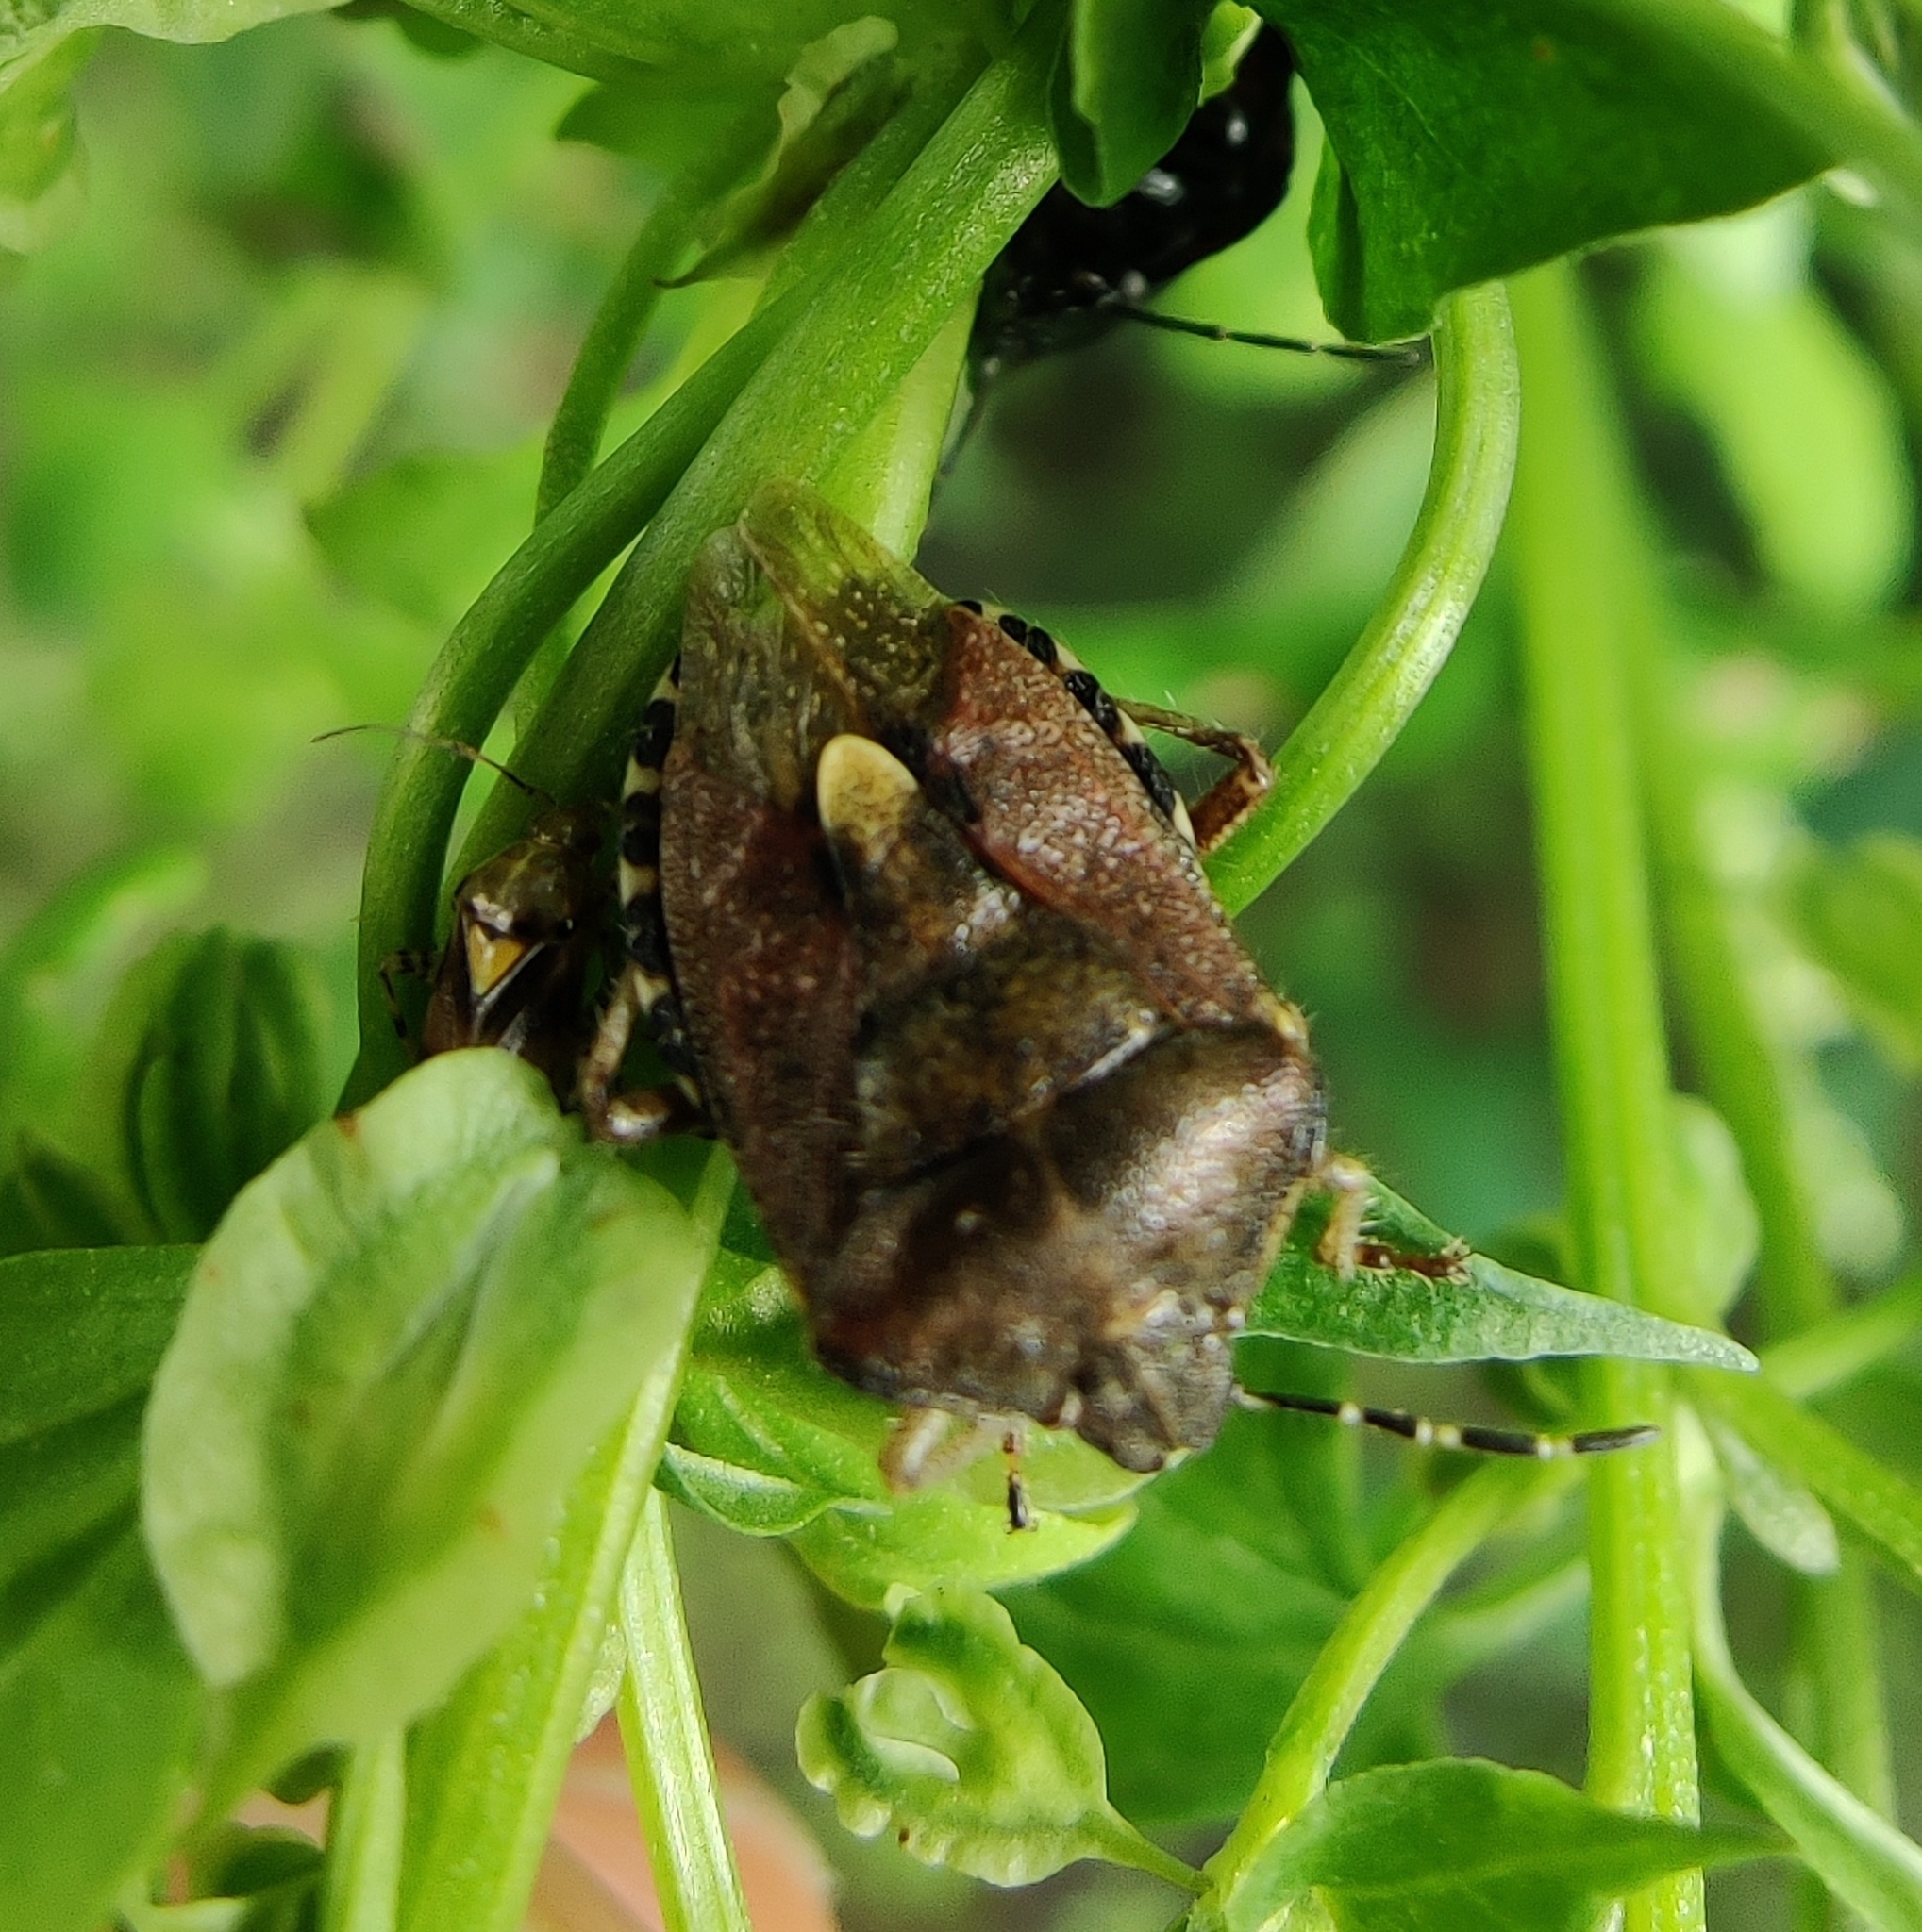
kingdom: Animalia
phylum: Arthropoda
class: Insecta
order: Hemiptera
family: Pentatomidae
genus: Dolycoris
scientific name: Dolycoris baccarum
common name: Sloe bug
